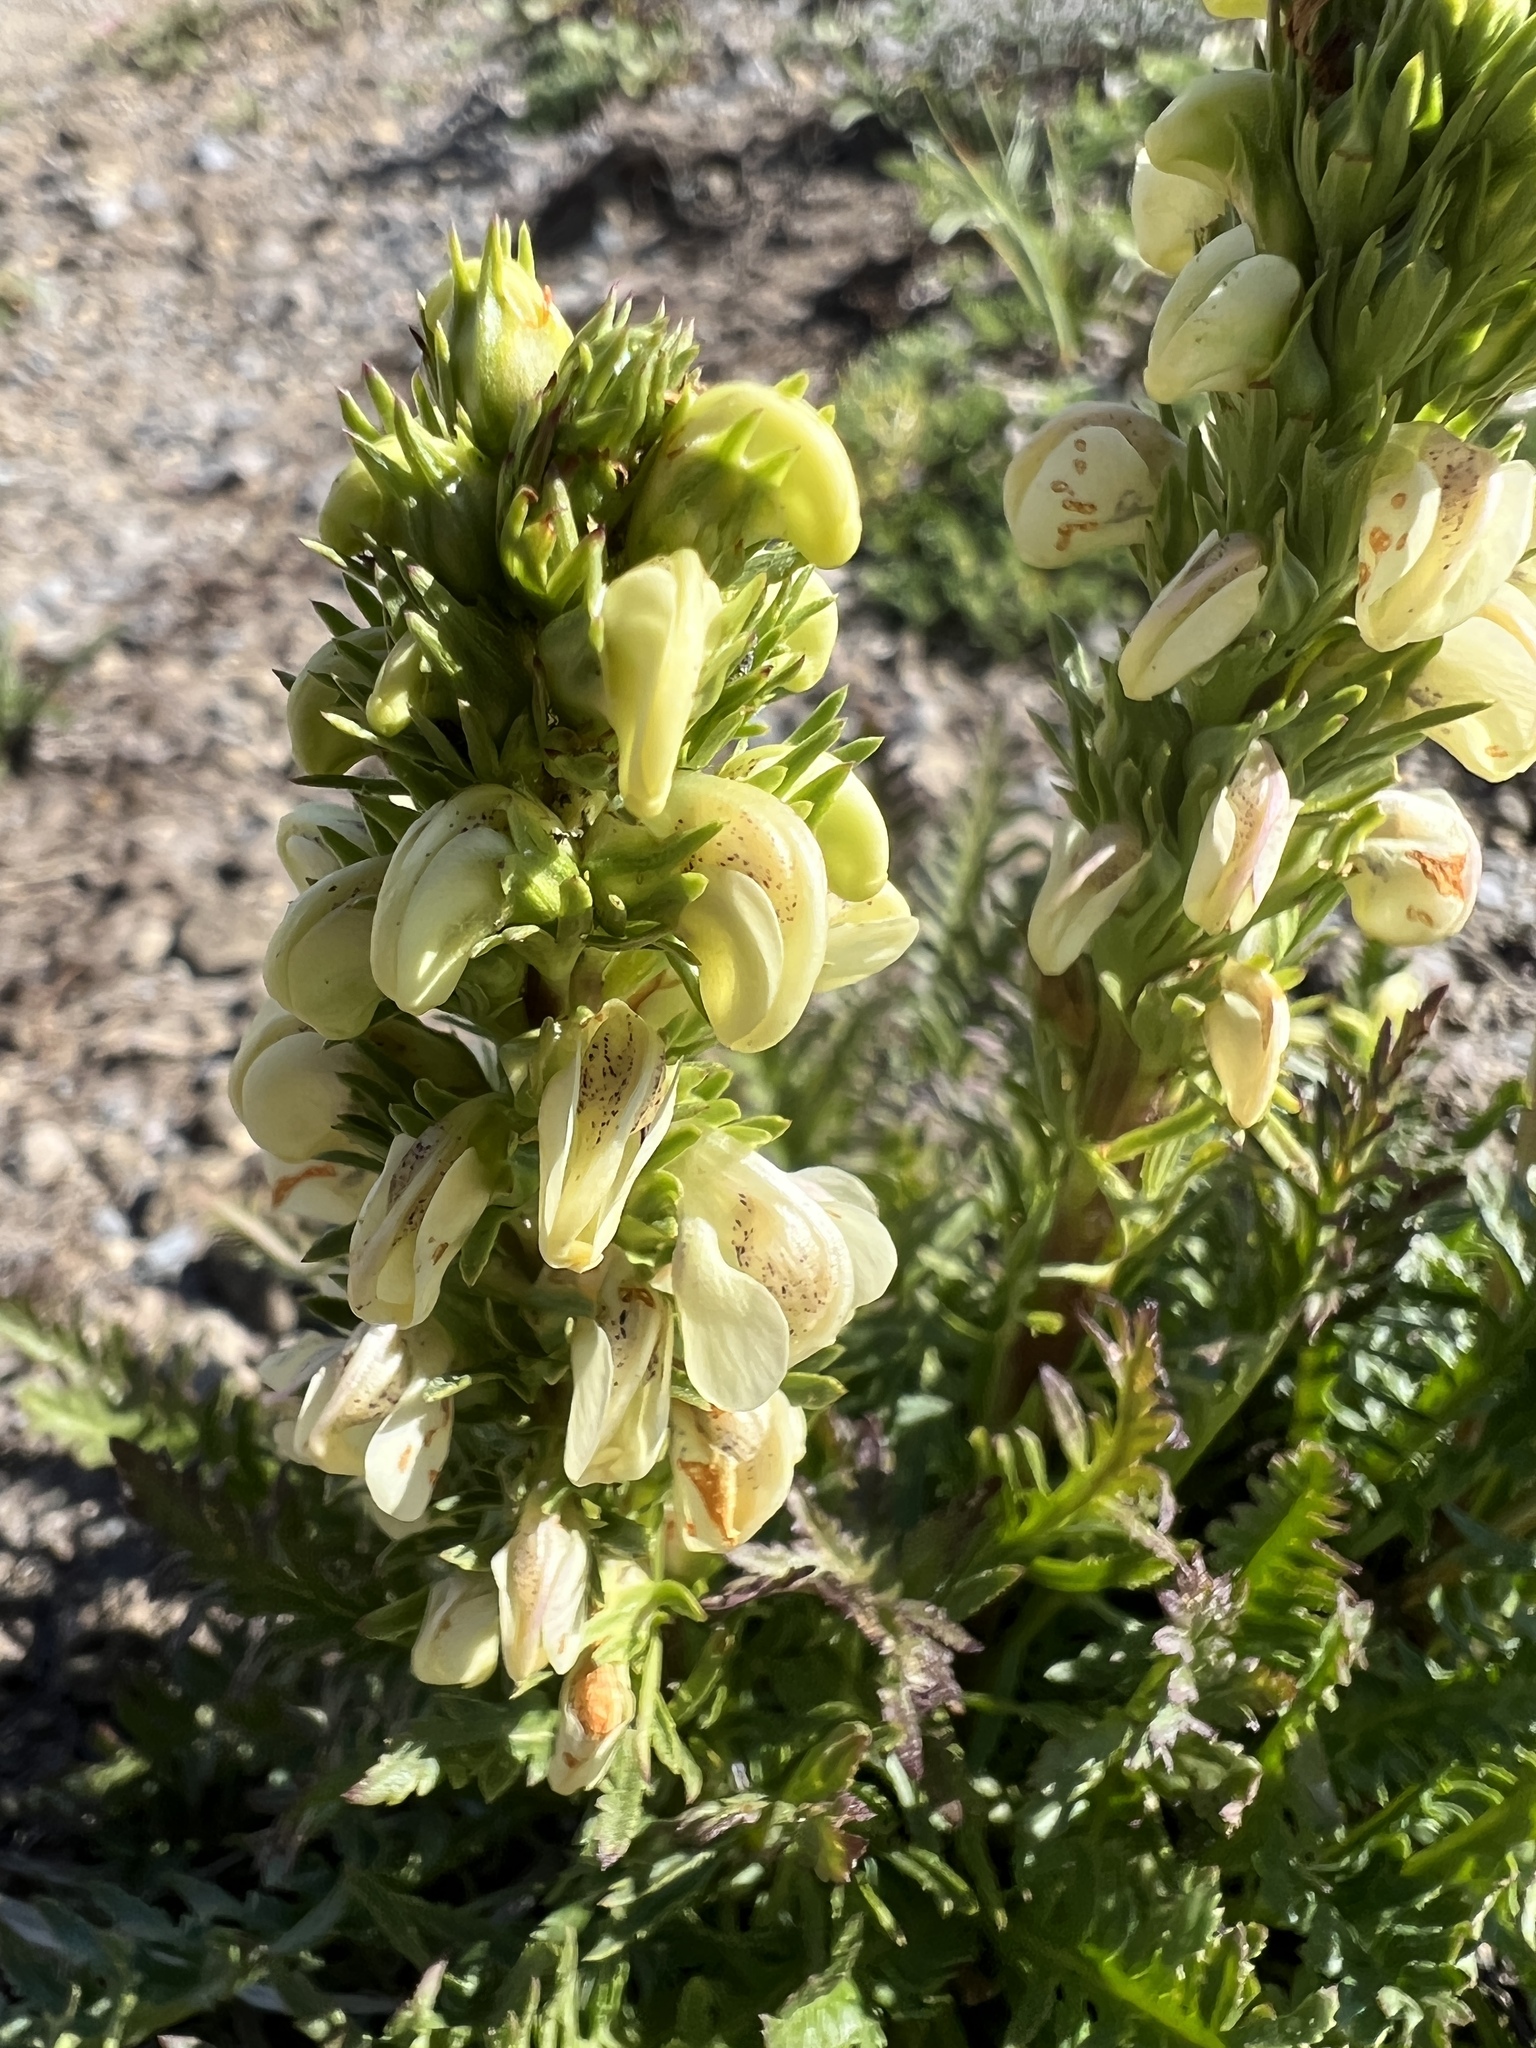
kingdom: Plantae
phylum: Tracheophyta
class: Magnoliopsida
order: Lamiales
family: Orobanchaceae
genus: Pedicularis
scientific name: Pedicularis contorta
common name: Coiled lousewort
